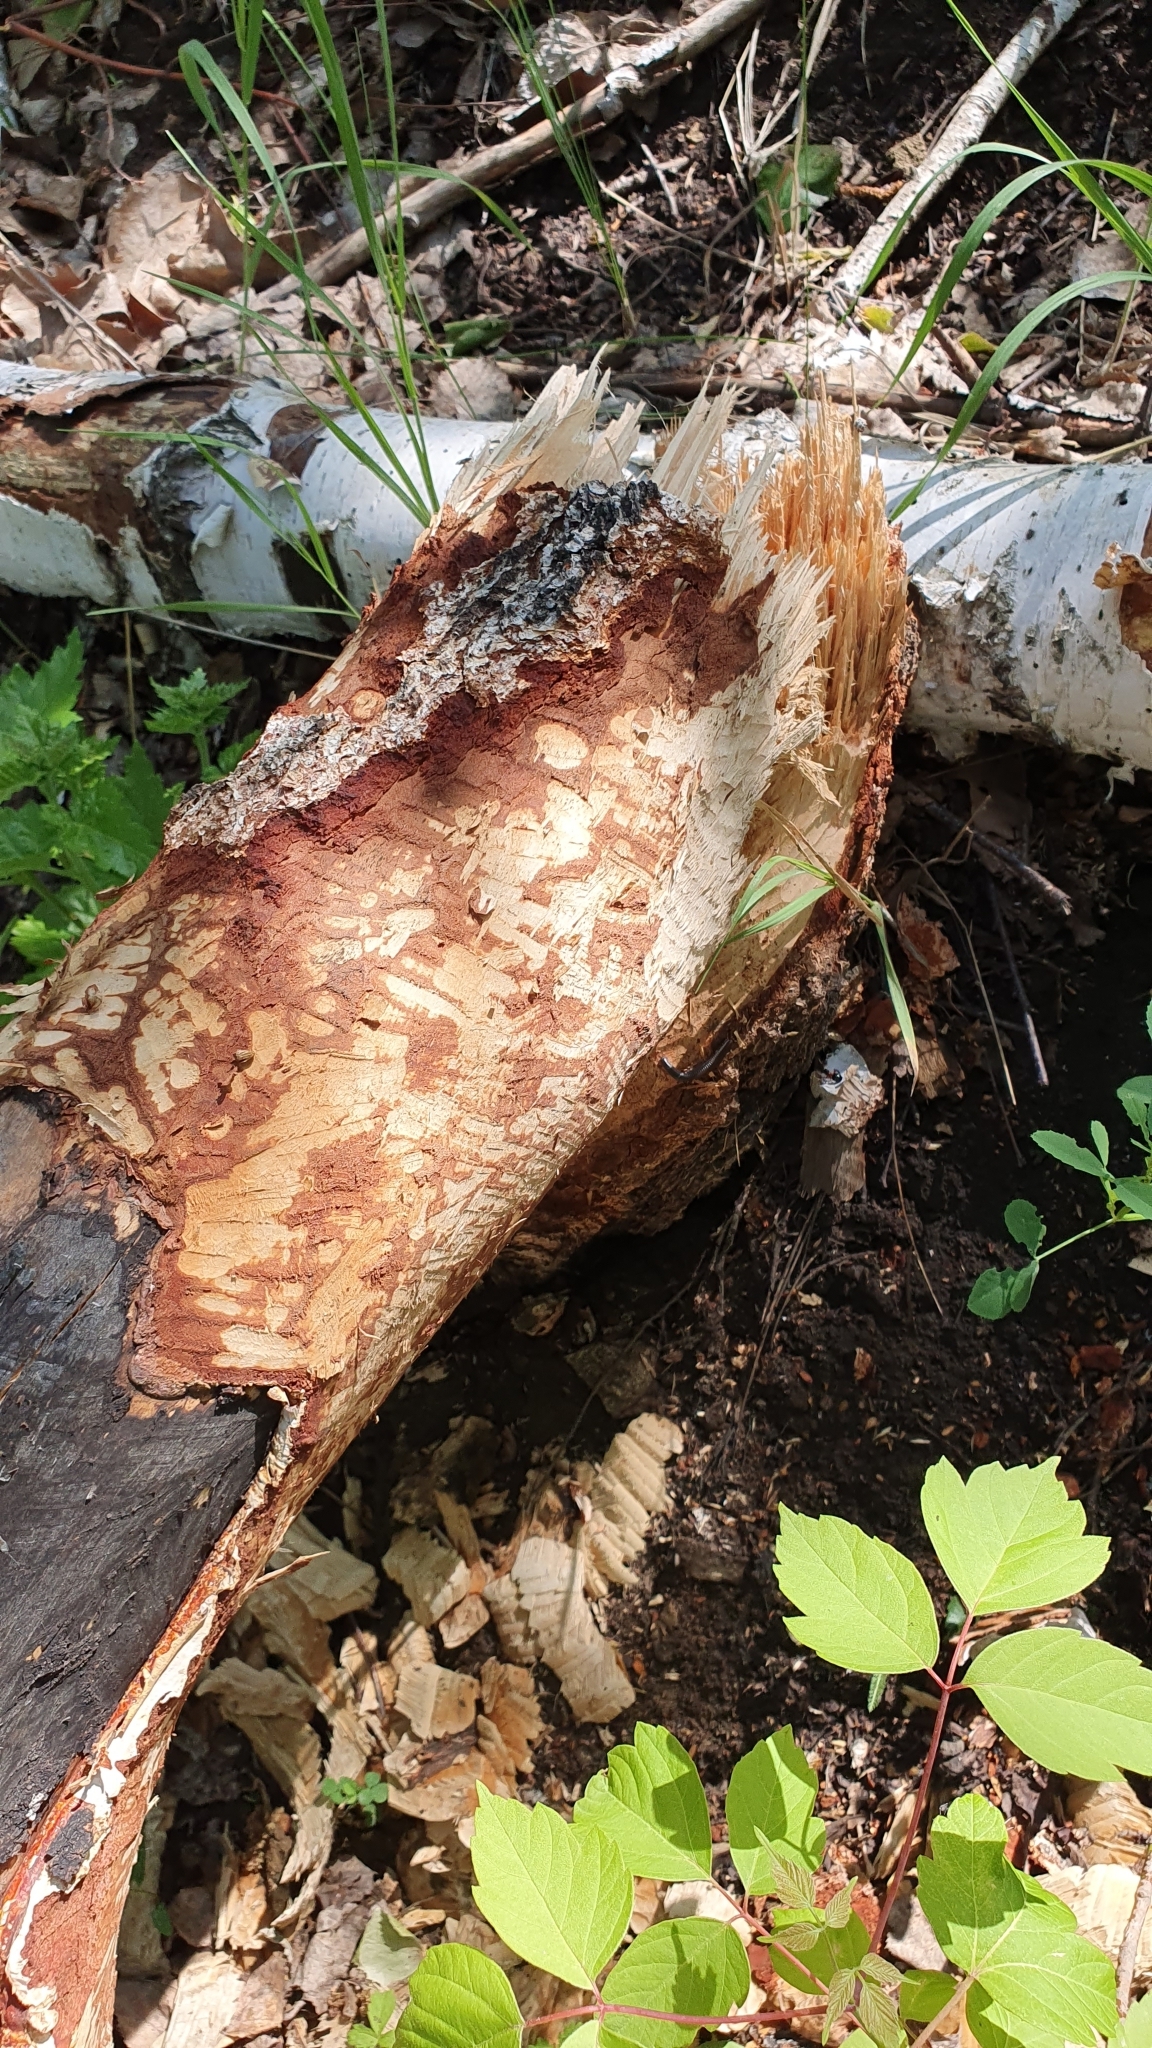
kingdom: Animalia
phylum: Chordata
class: Mammalia
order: Rodentia
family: Castoridae
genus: Castor
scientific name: Castor fiber
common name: Eurasian beaver
